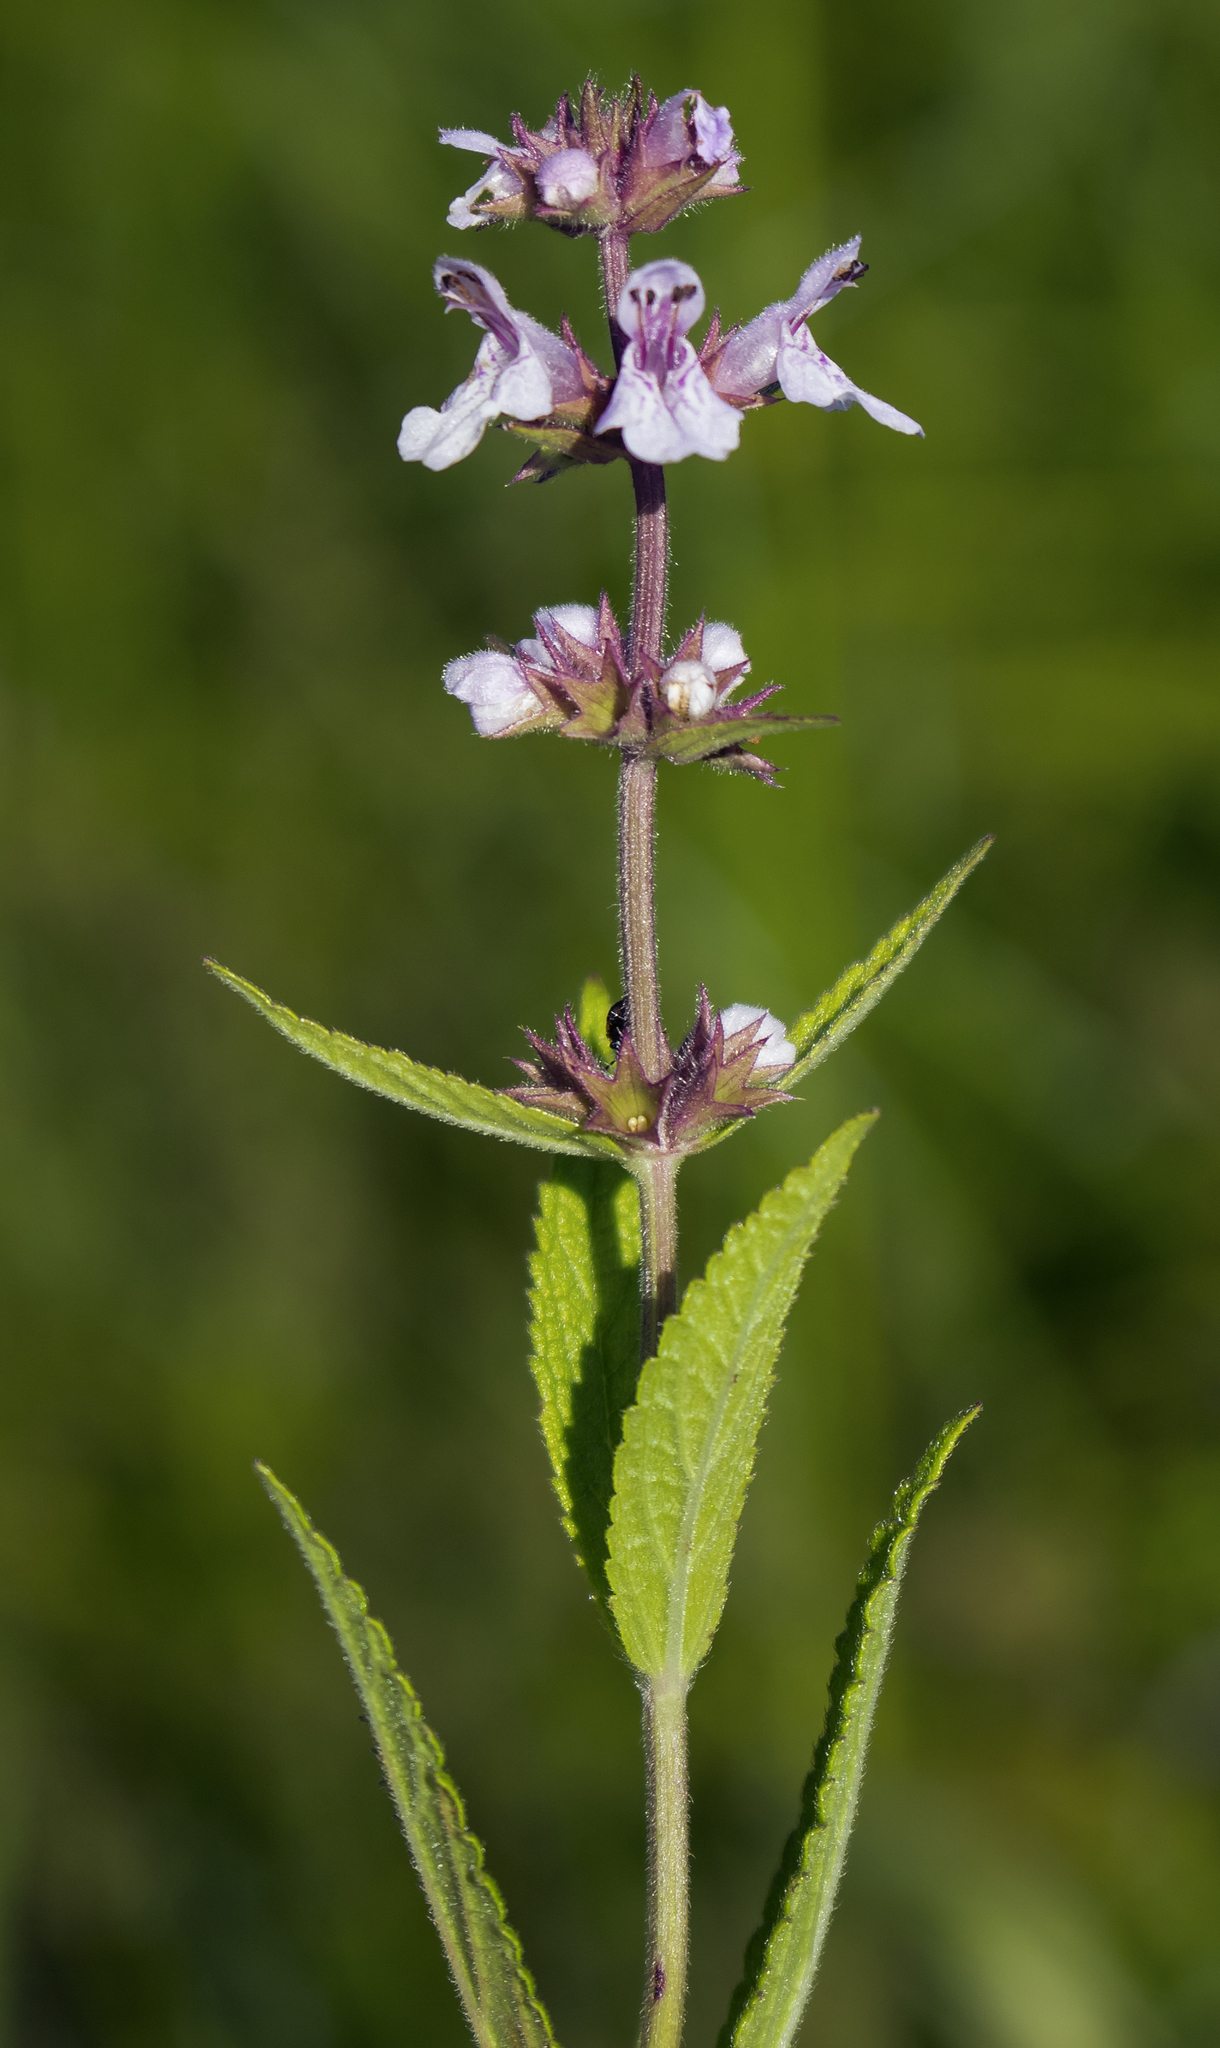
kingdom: Plantae
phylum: Tracheophyta
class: Magnoliopsida
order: Lamiales
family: Lamiaceae
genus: Stachys
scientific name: Stachys palustris
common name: Marsh woundwort
